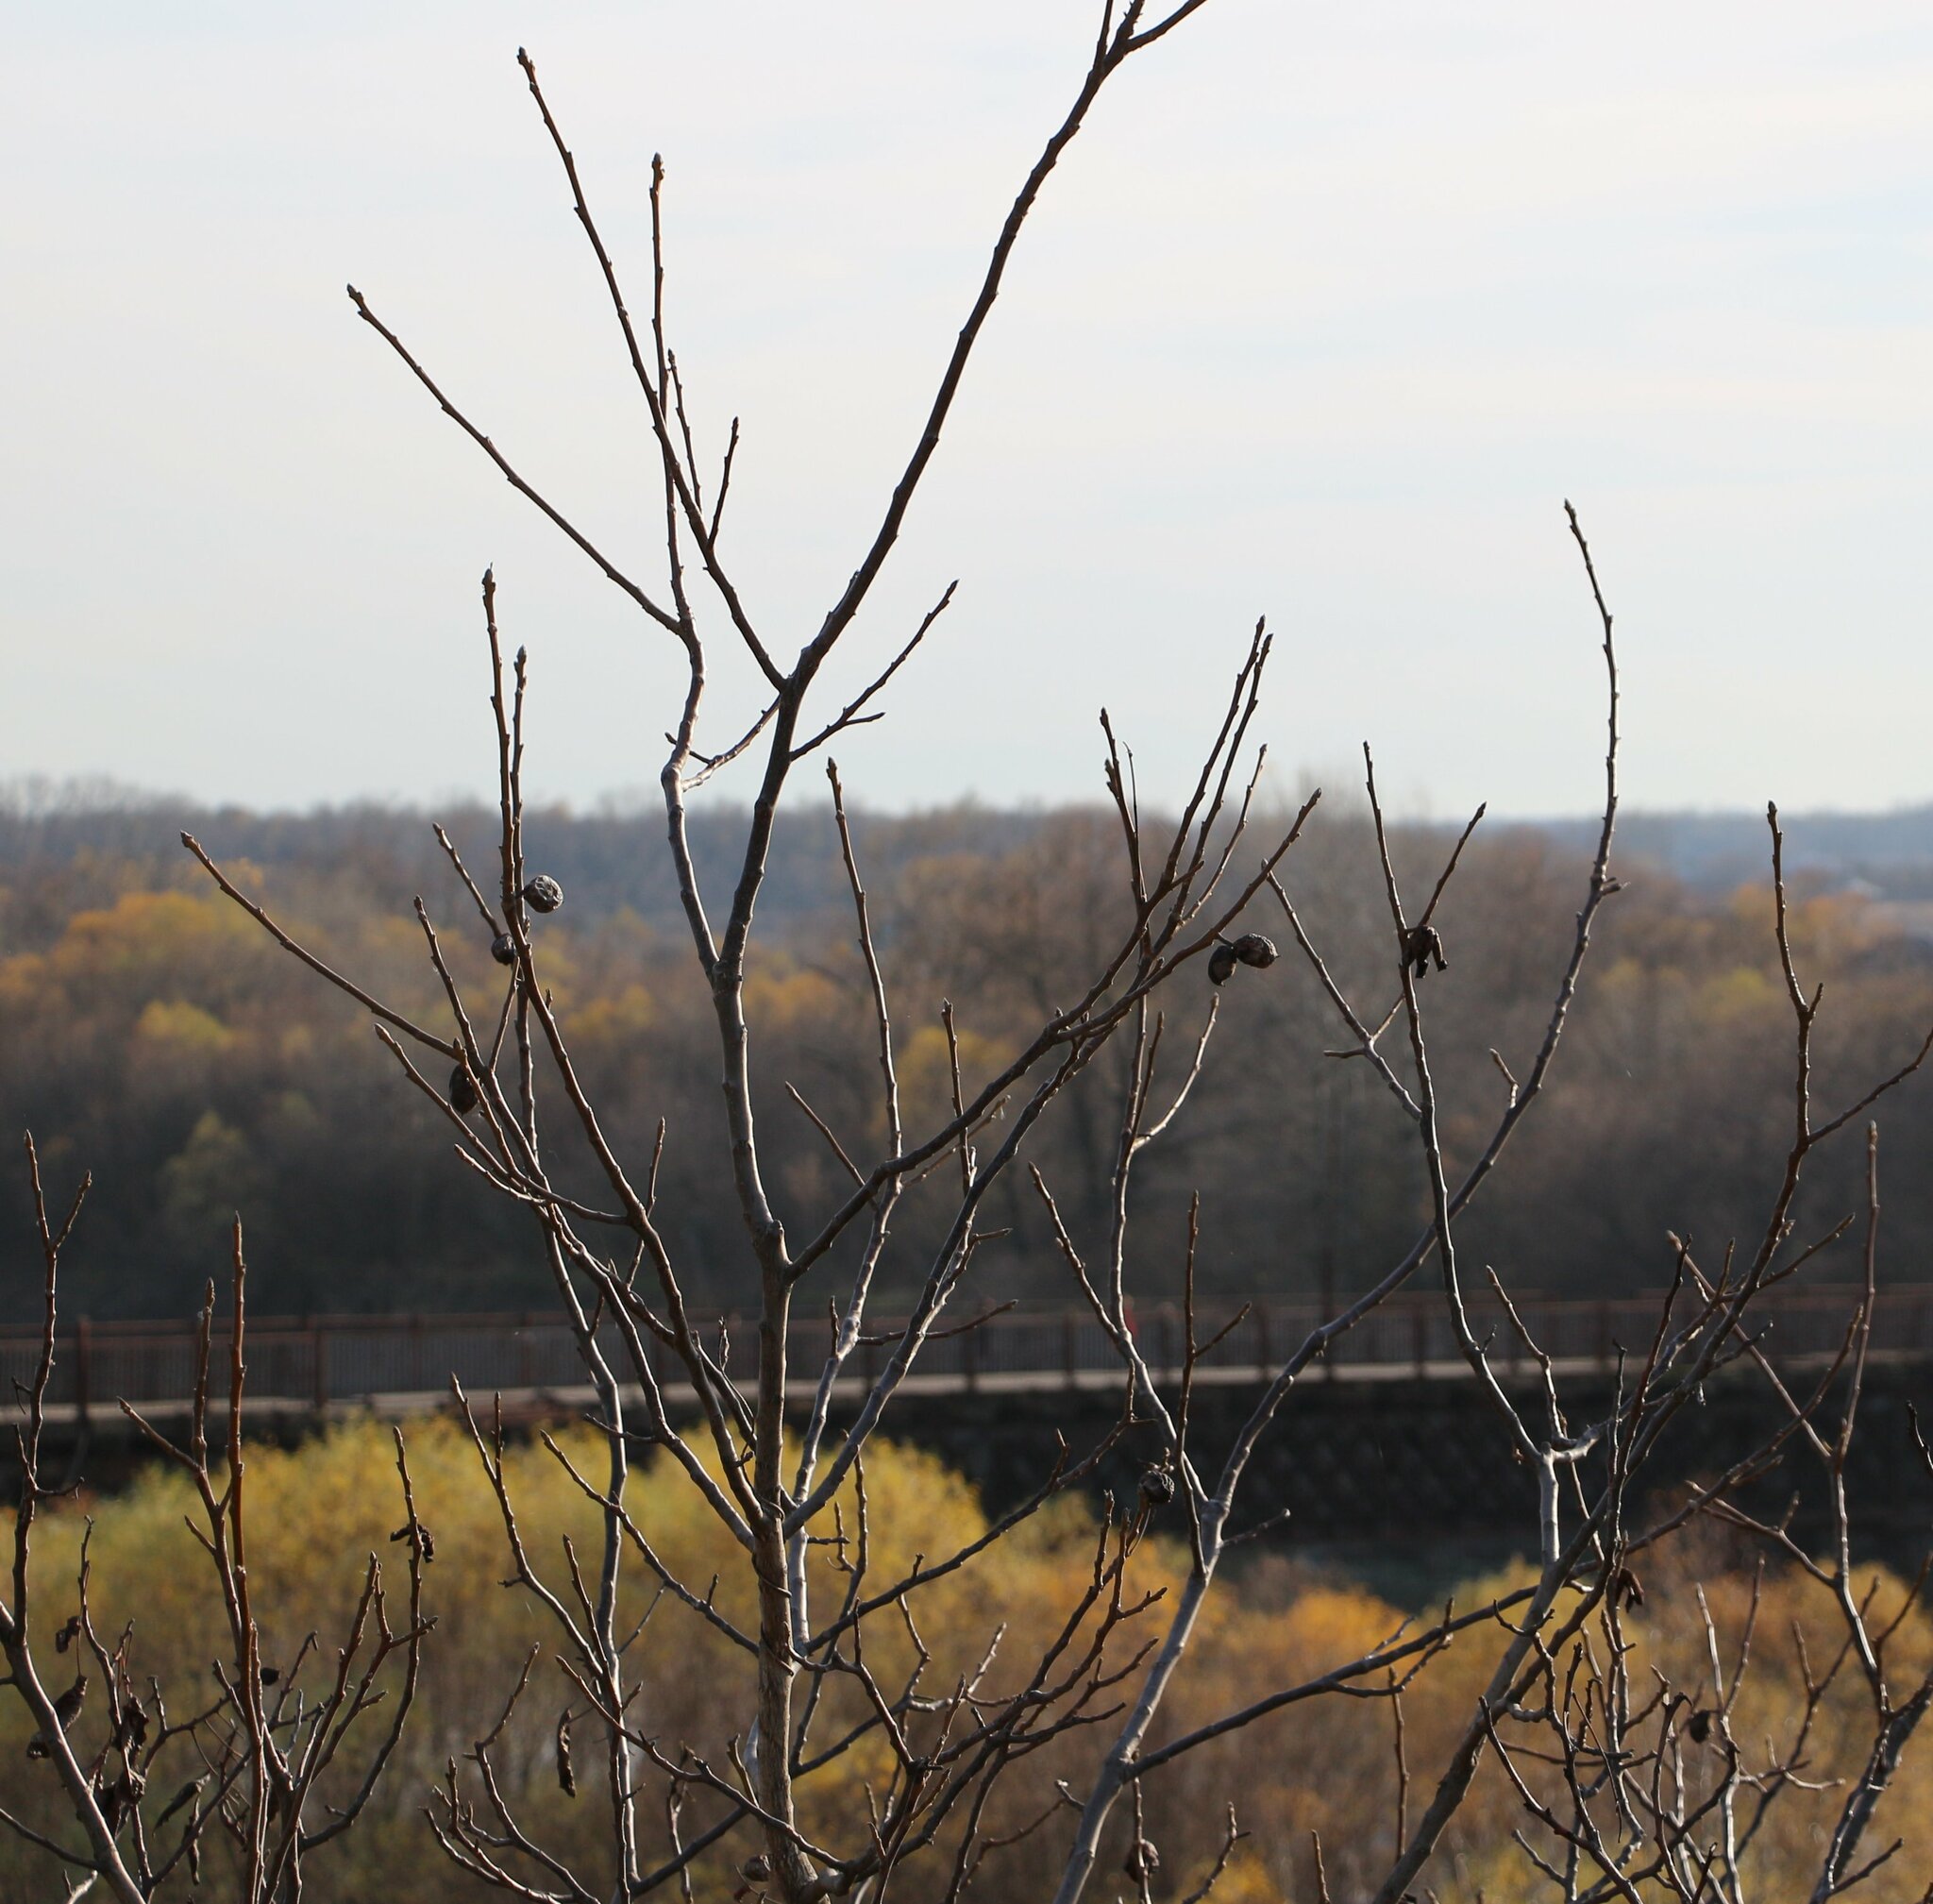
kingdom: Plantae
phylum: Tracheophyta
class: Magnoliopsida
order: Fagales
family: Juglandaceae
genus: Juglans
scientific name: Juglans regia
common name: Walnut
